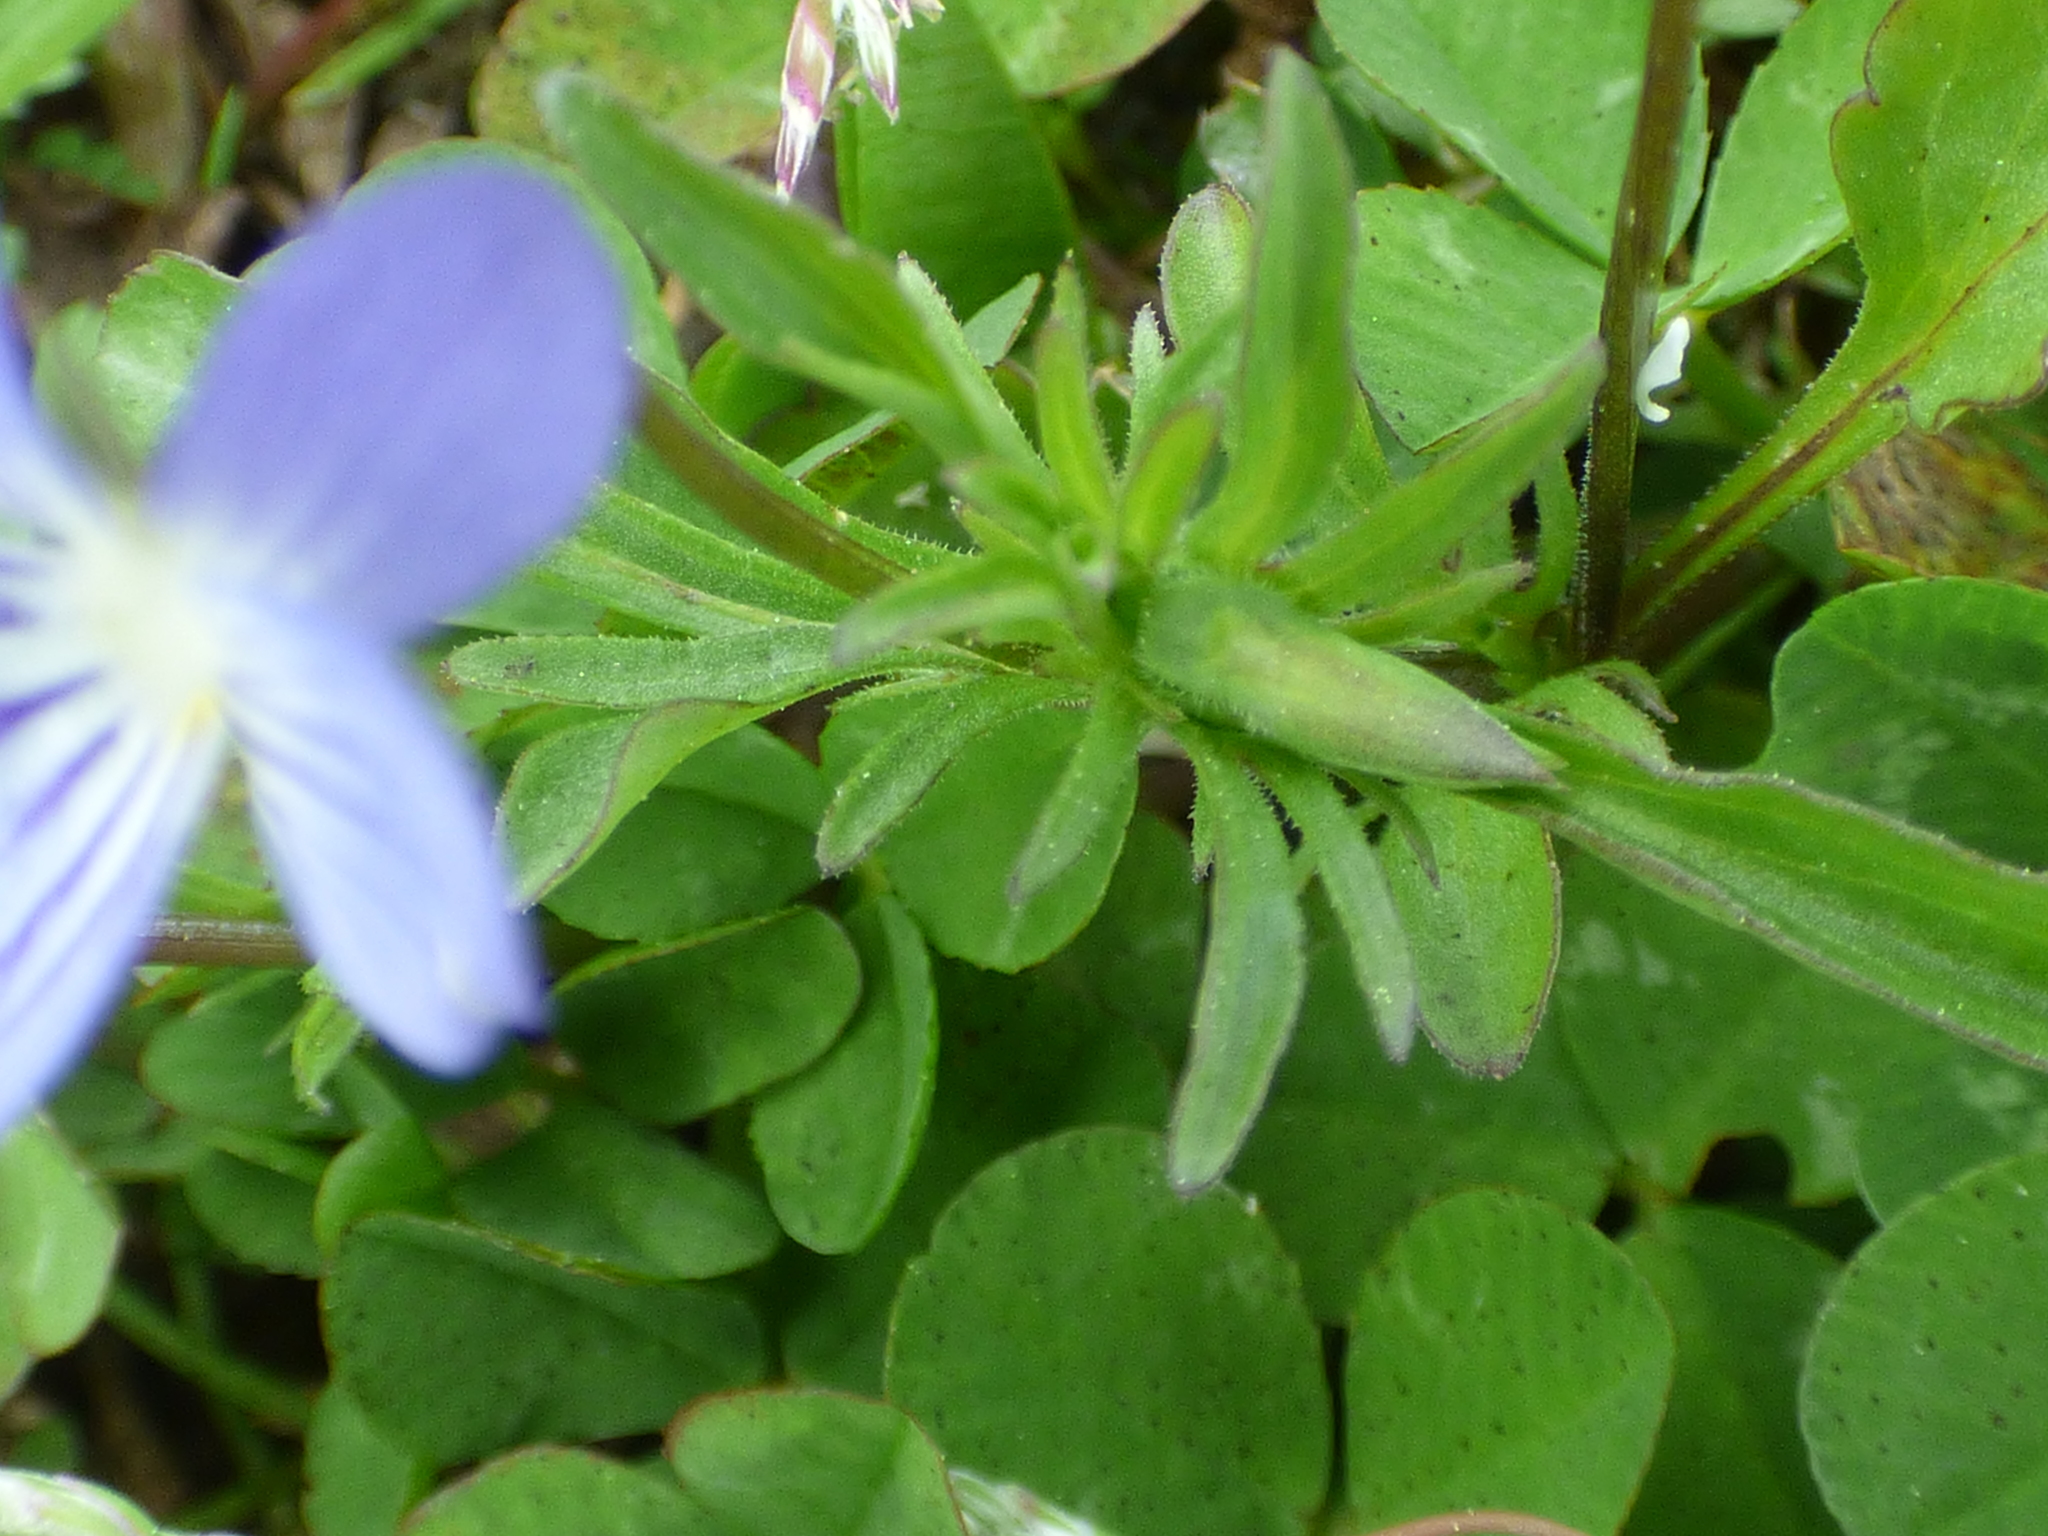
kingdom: Plantae
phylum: Tracheophyta
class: Magnoliopsida
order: Malpighiales
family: Violaceae
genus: Viola
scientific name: Viola rafinesquei
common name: American field pansy
